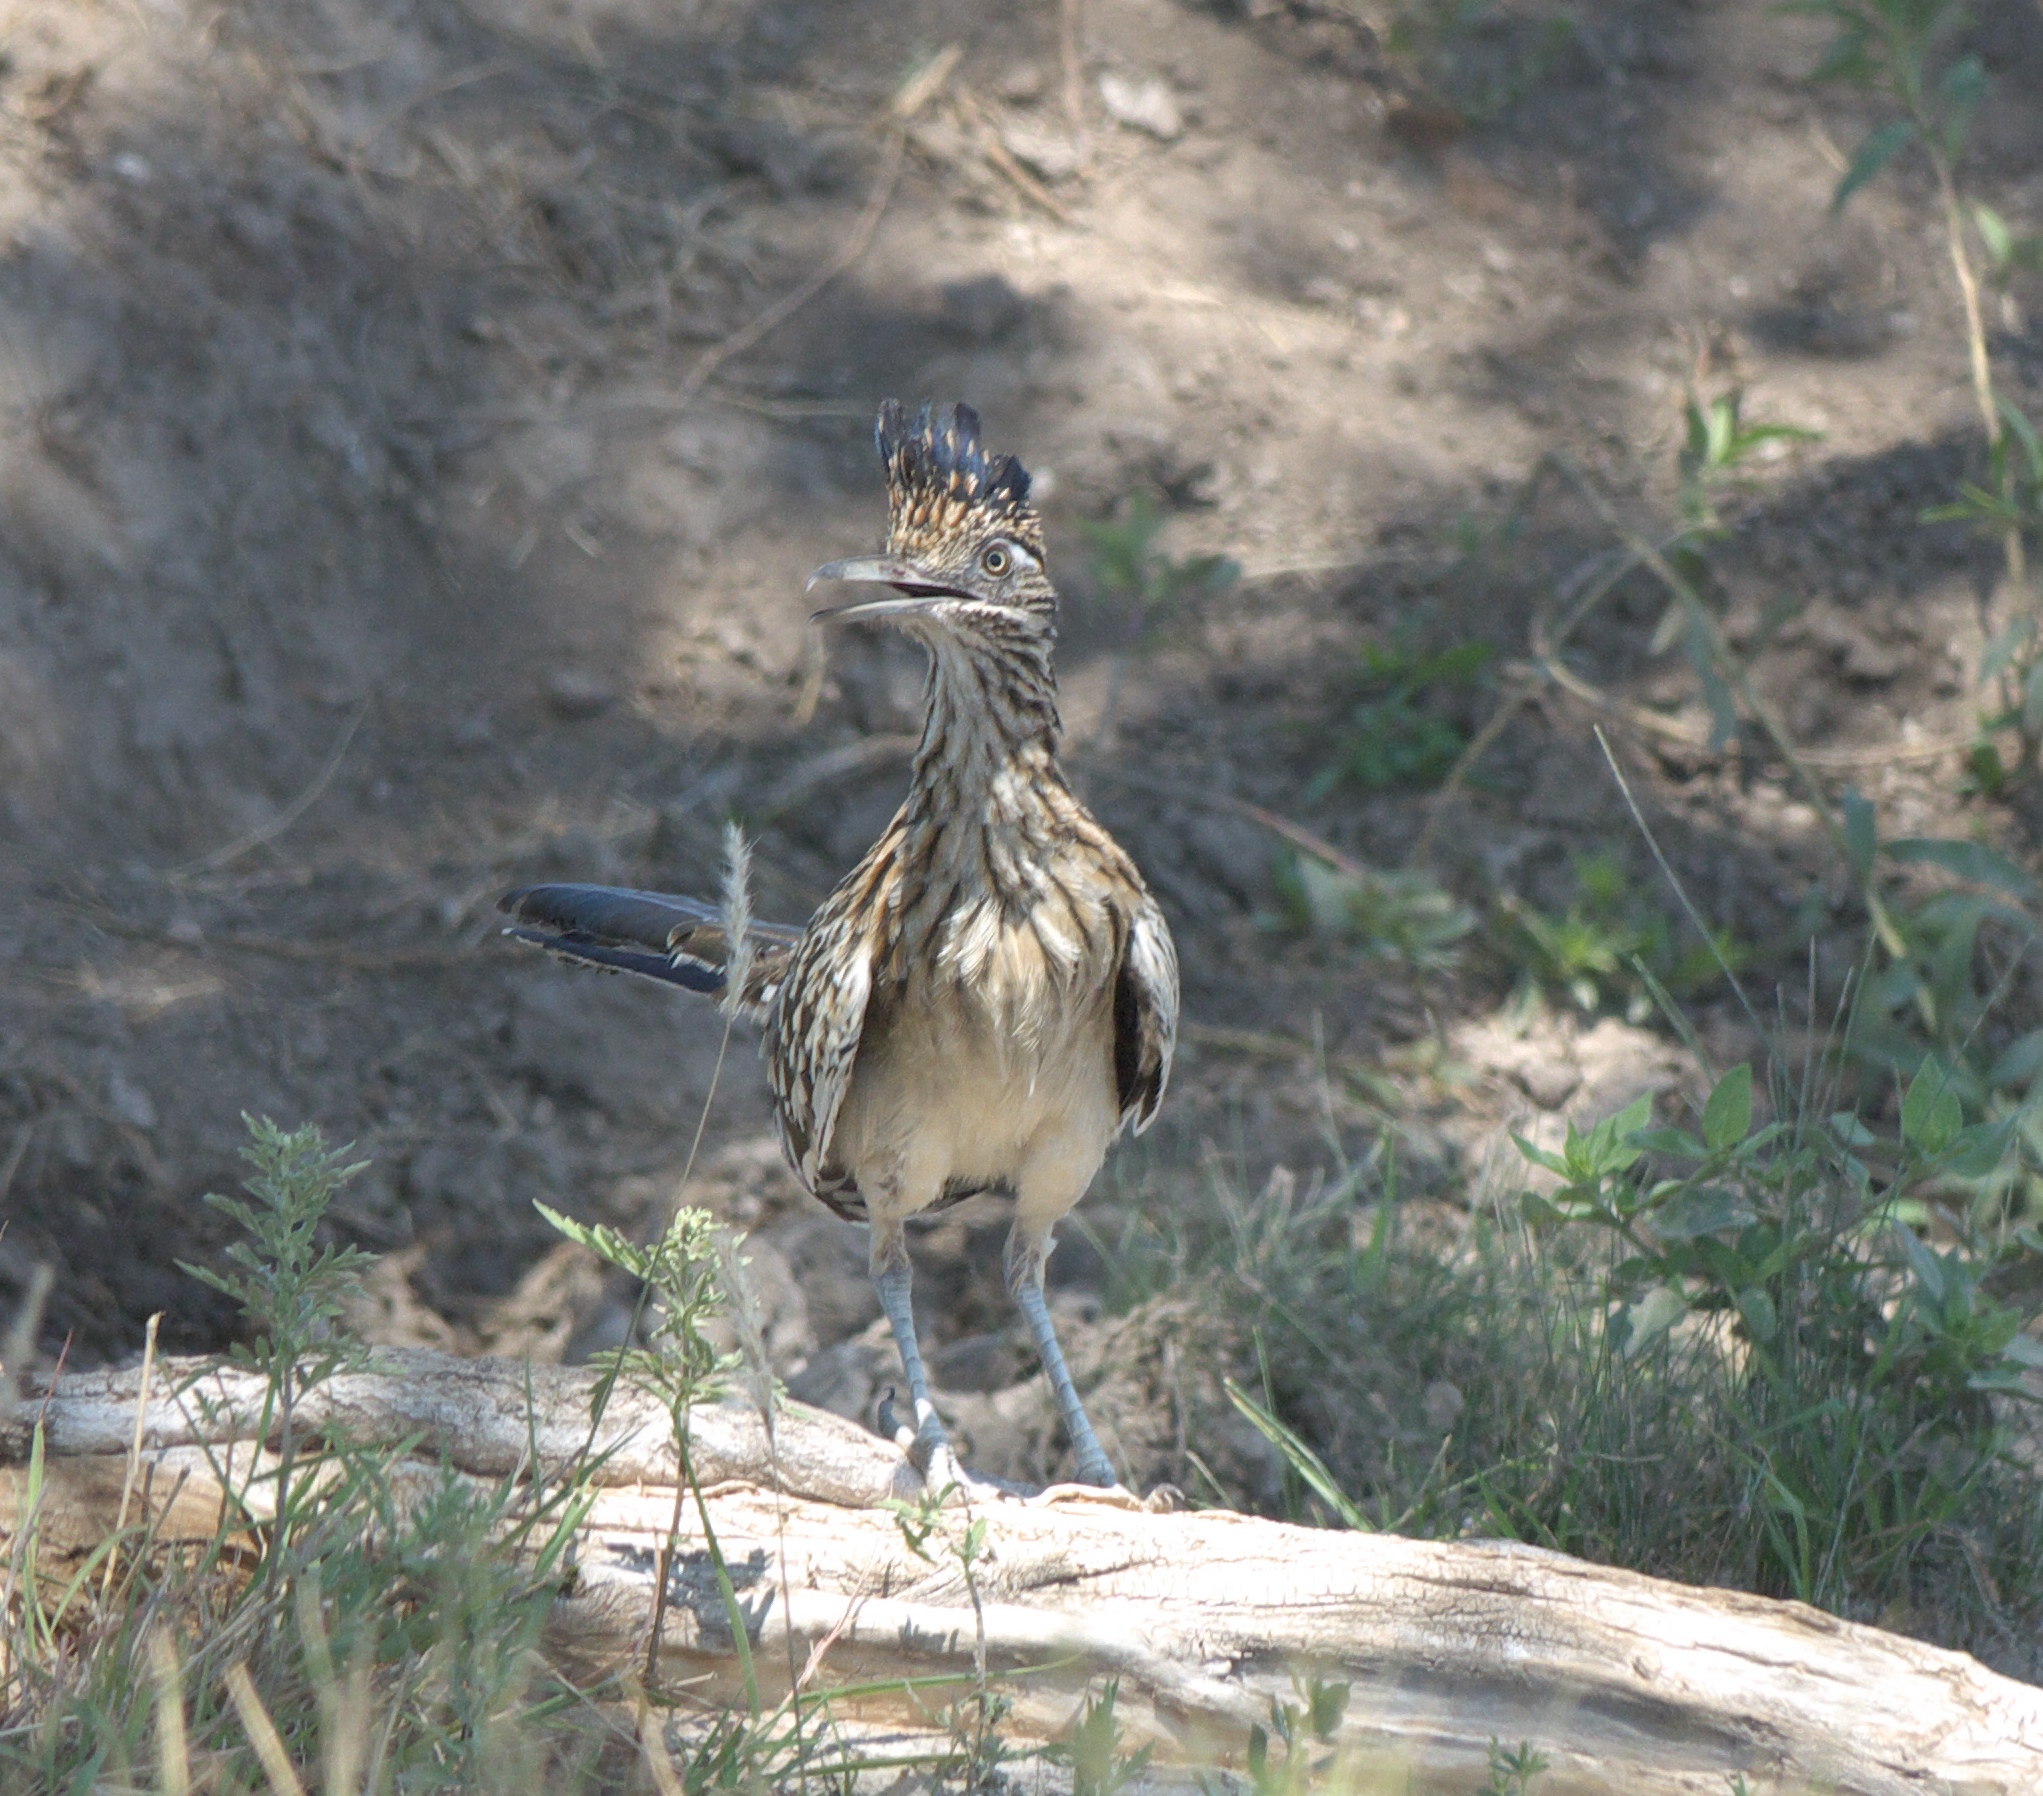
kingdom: Animalia
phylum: Chordata
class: Aves
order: Cuculiformes
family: Cuculidae
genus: Geococcyx
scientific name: Geococcyx californianus
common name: Greater roadrunner
